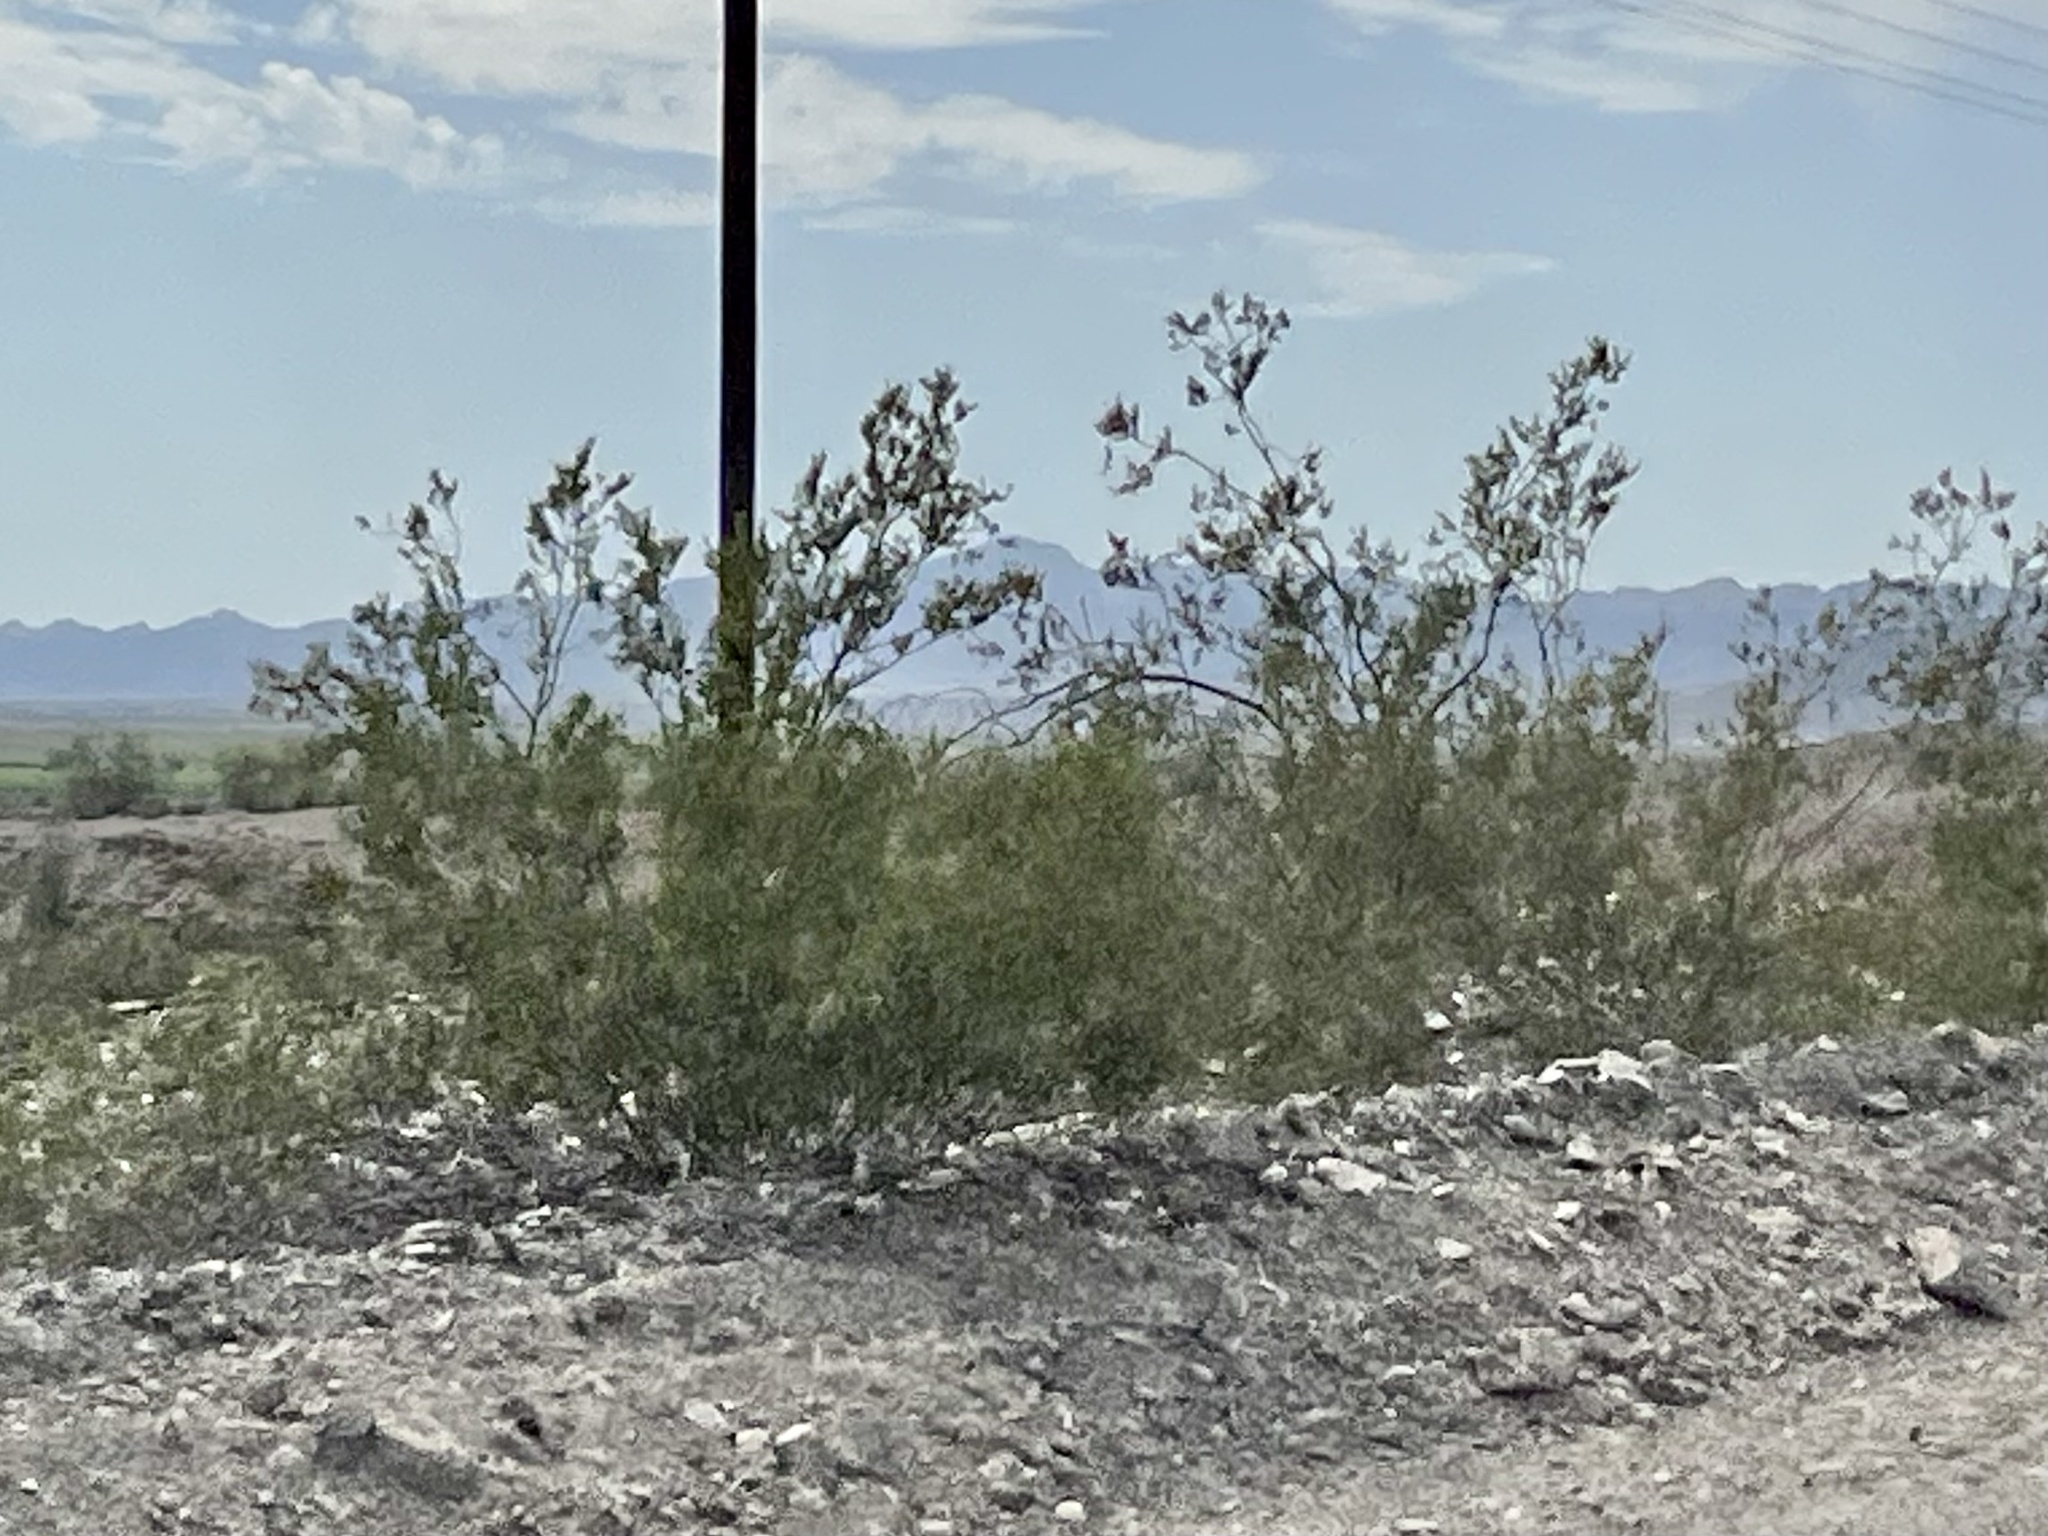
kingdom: Plantae
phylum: Tracheophyta
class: Magnoliopsida
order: Zygophyllales
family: Zygophyllaceae
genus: Larrea
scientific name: Larrea tridentata
